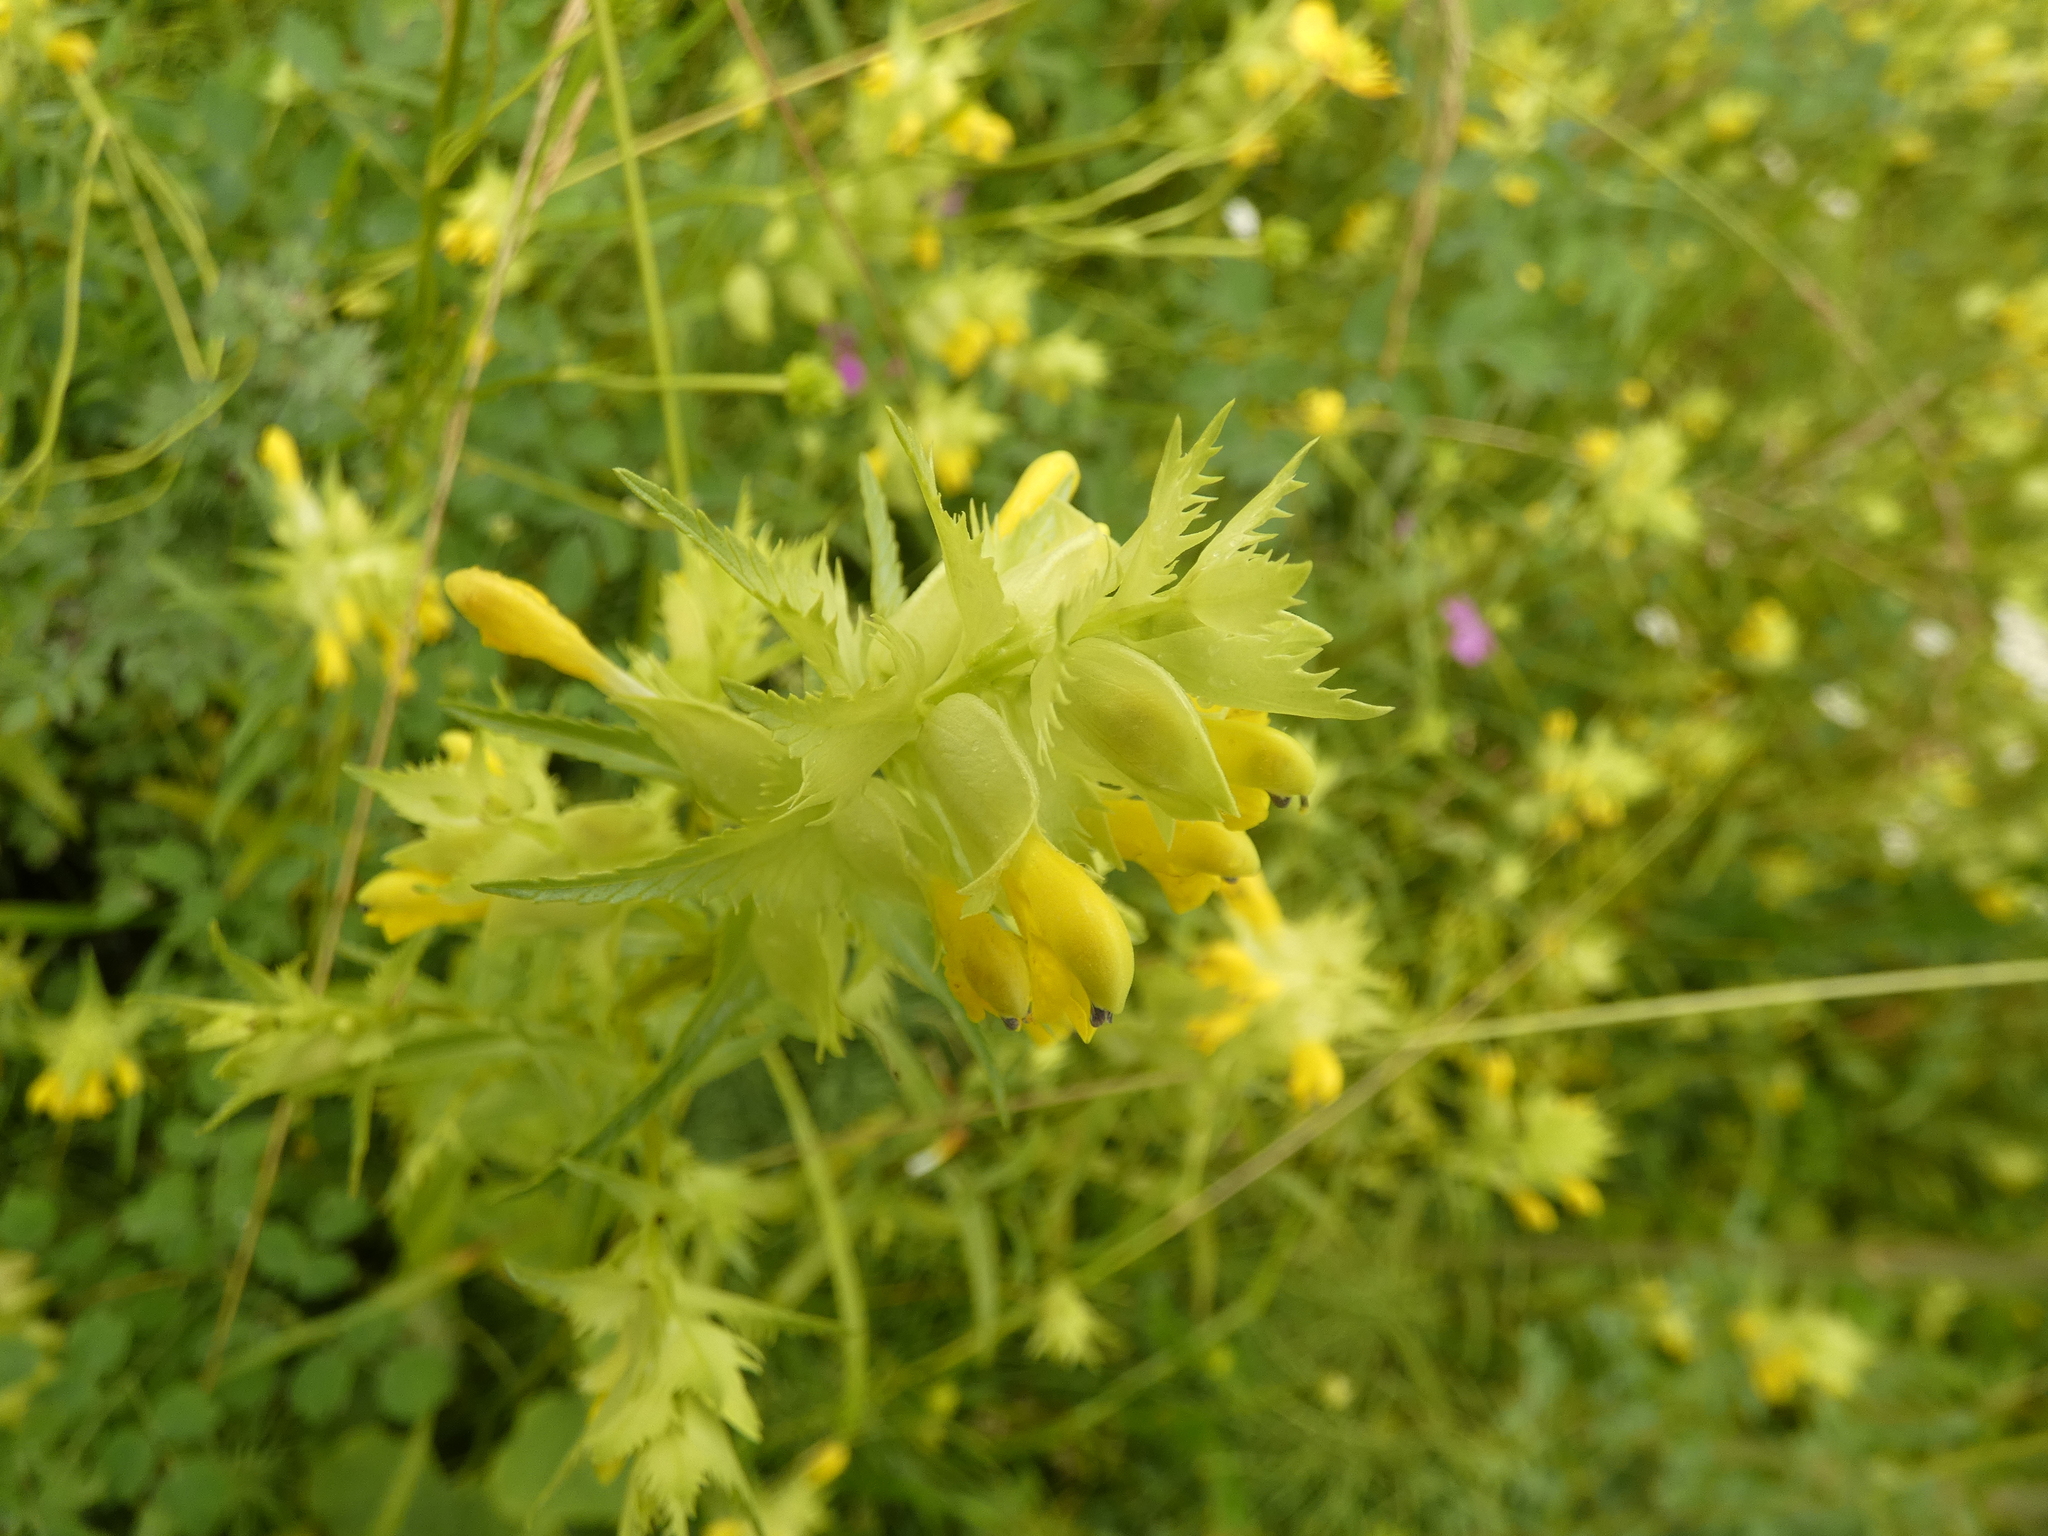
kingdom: Plantae
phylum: Tracheophyta
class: Magnoliopsida
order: Lamiales
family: Orobanchaceae
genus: Rhinanthus
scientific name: Rhinanthus serotinus
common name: Late-flowering yellow rattle
